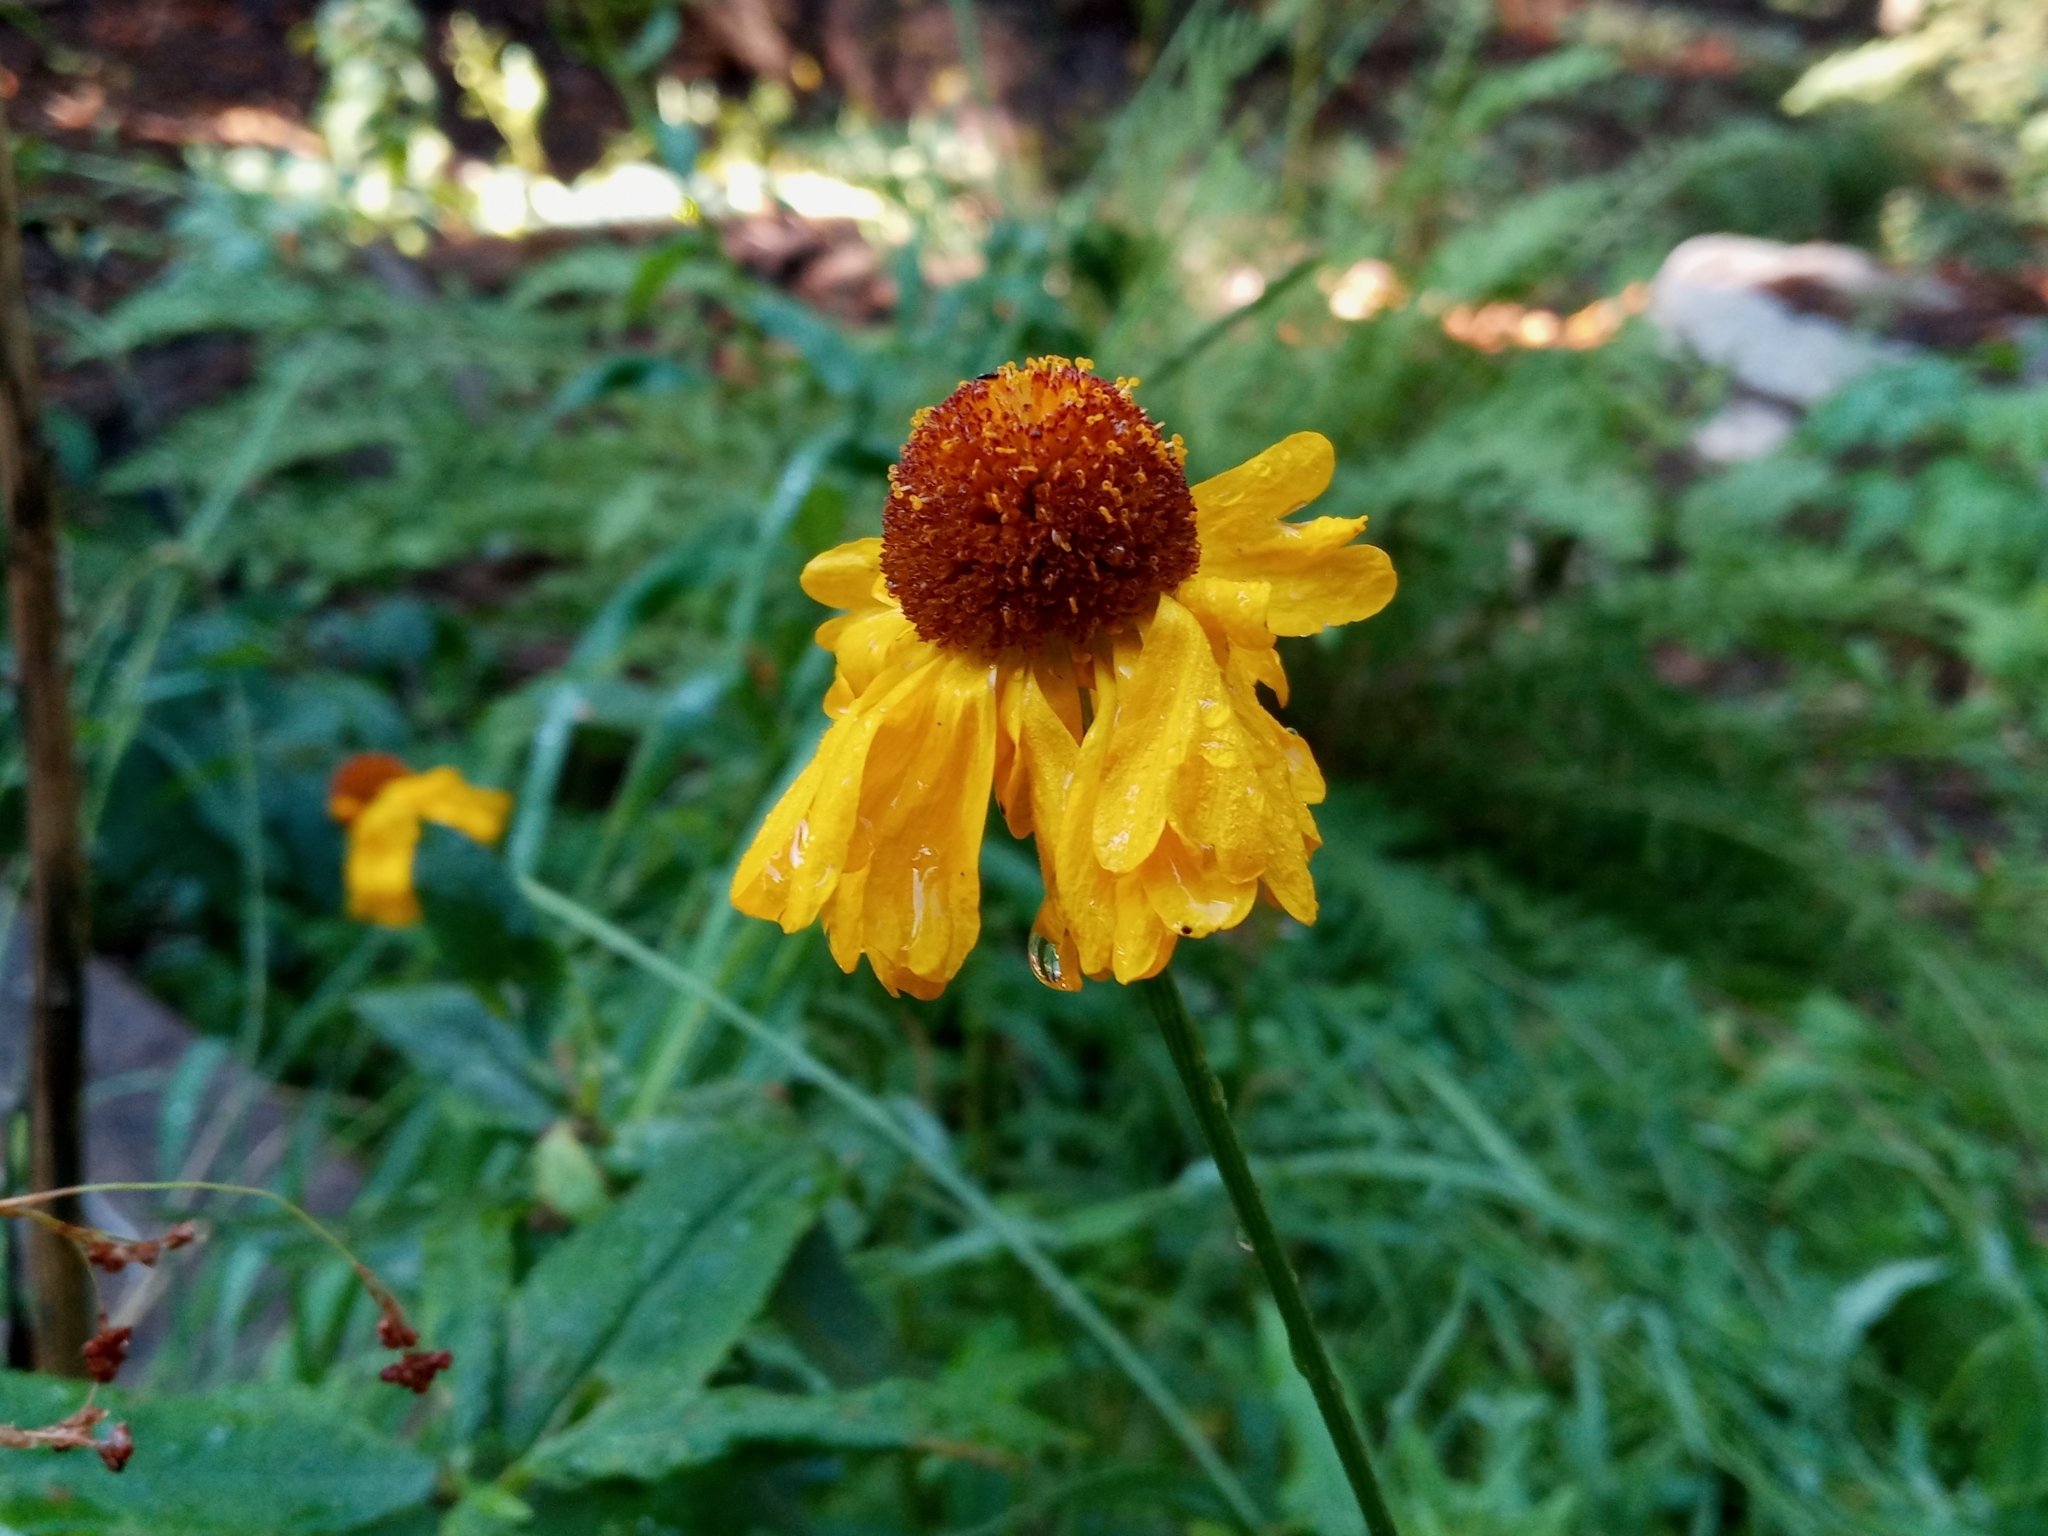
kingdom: Plantae
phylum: Tracheophyta
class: Magnoliopsida
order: Asterales
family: Asteraceae
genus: Helenium
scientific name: Helenium bigelovii
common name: Bigelow's sneezeweed
